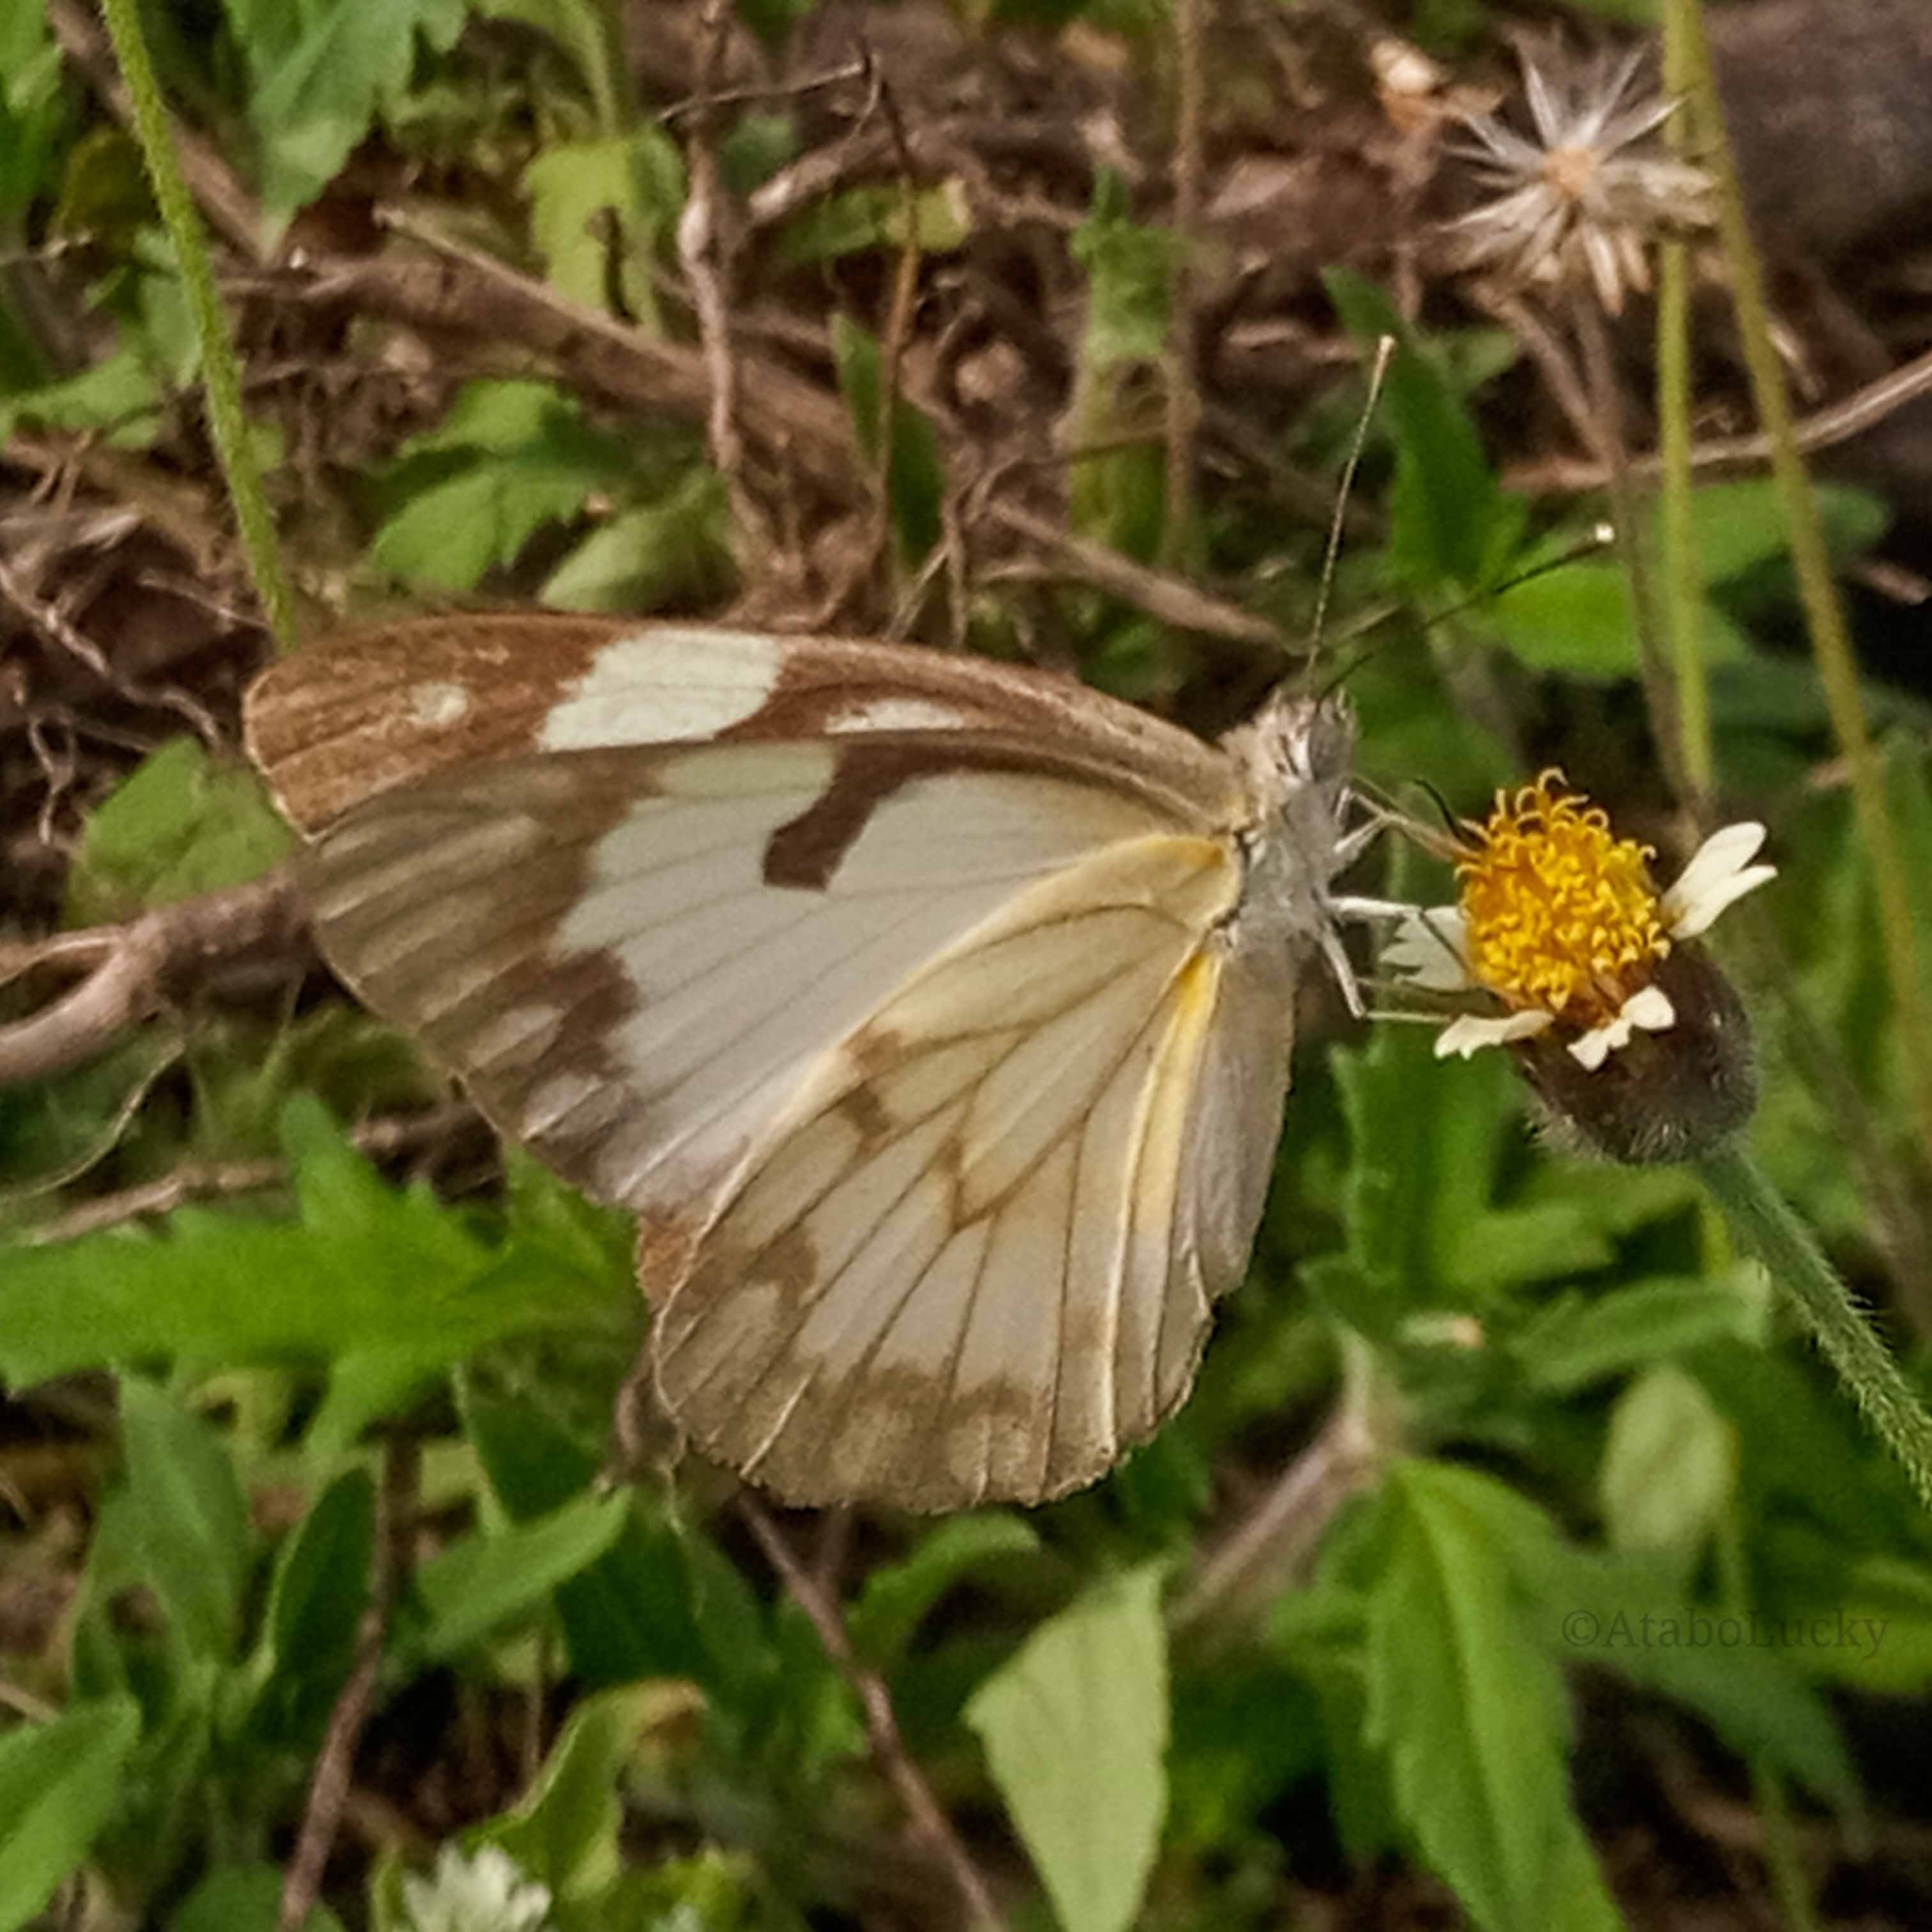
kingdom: Animalia
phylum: Arthropoda
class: Insecta
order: Lepidoptera
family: Pieridae
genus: Belenois
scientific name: Belenois aurota
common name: Brown-veined white
